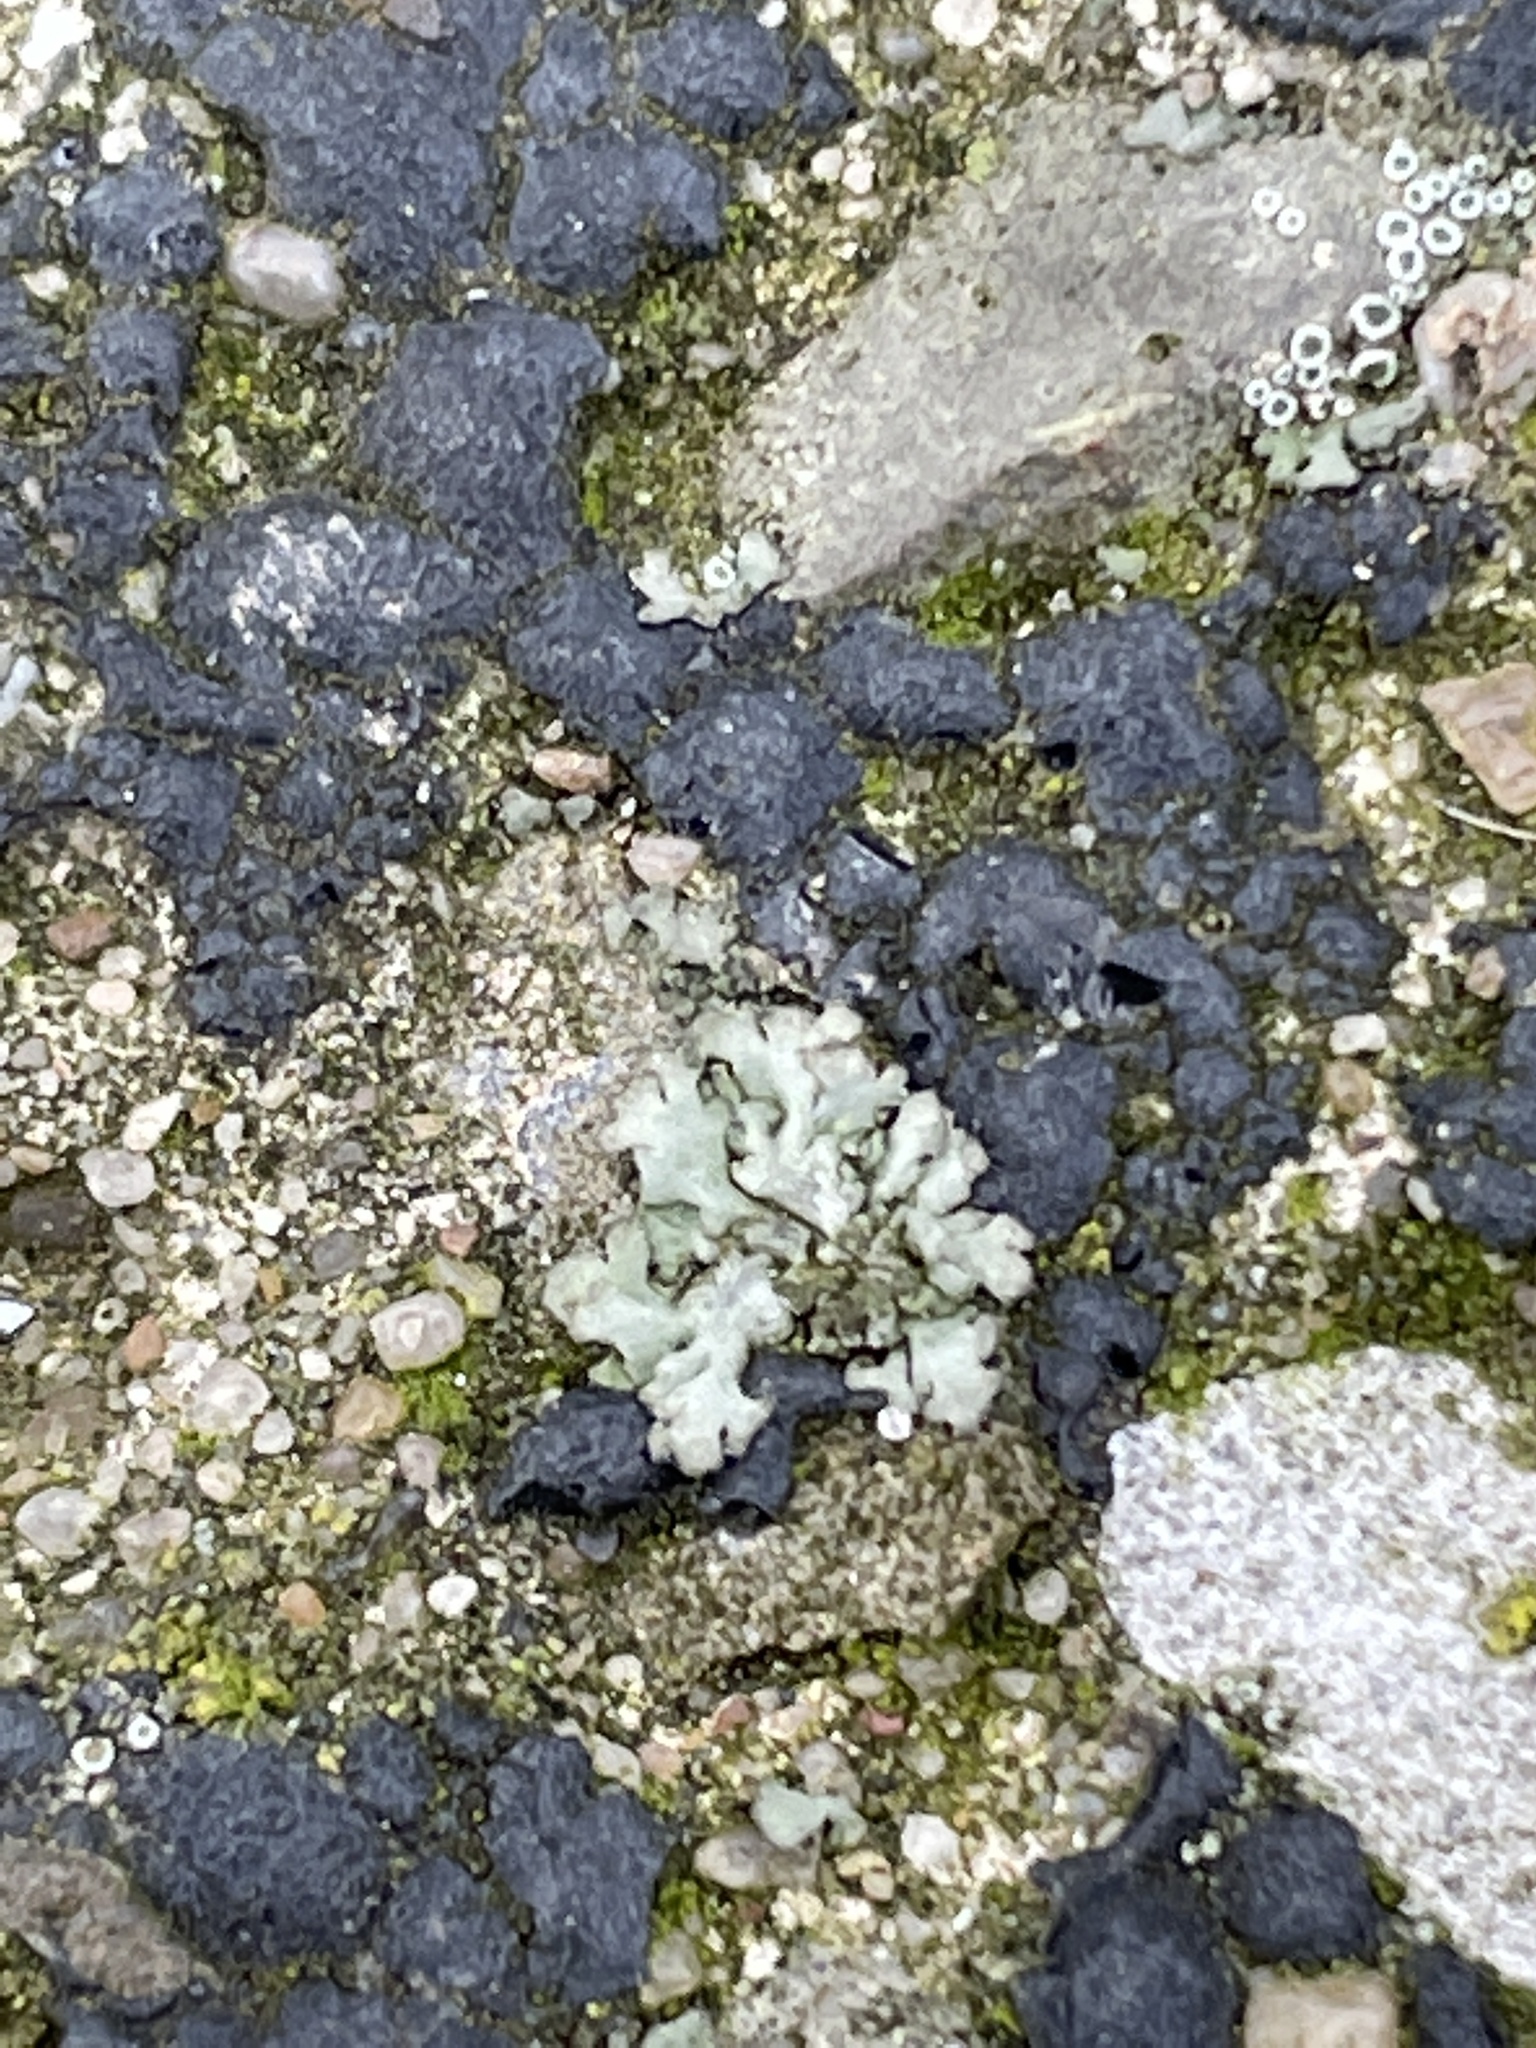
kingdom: Fungi
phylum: Ascomycota
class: Lecanoromycetes
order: Caliciales
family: Physciaceae
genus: Phaeophyscia
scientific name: Phaeophyscia orbicularis
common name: Mealy shadow lichen
